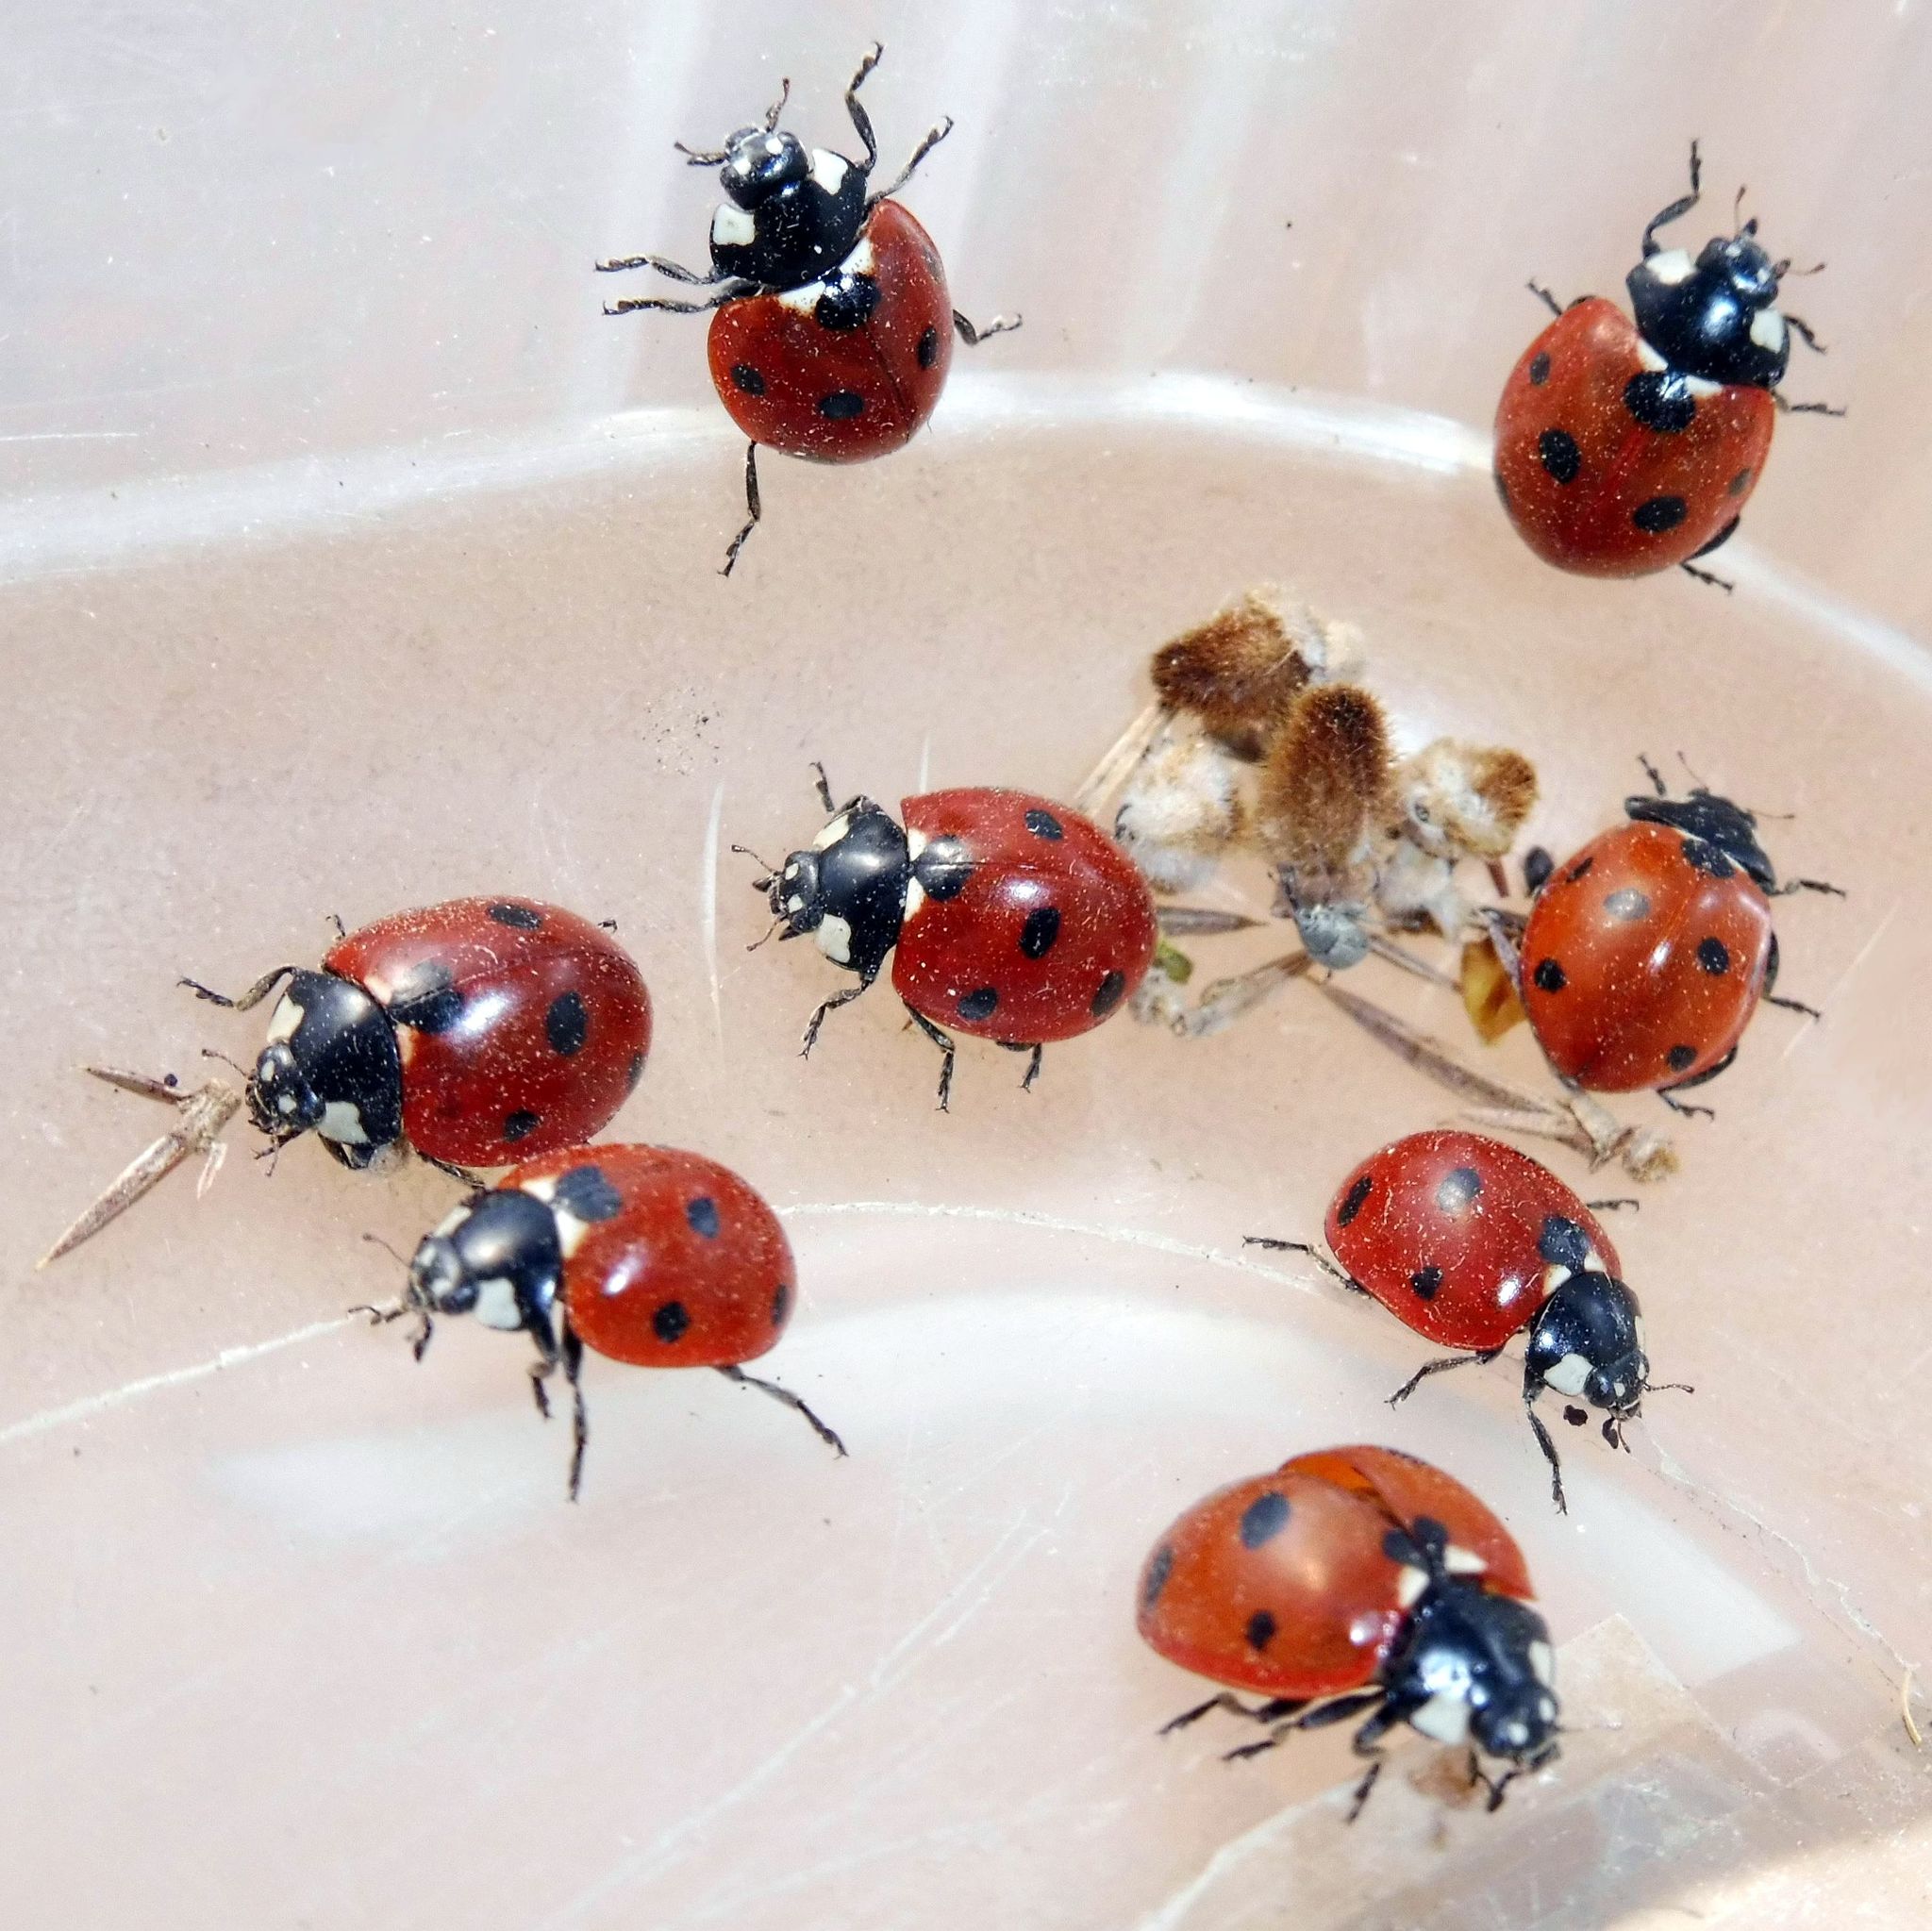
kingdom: Animalia
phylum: Arthropoda
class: Insecta
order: Coleoptera
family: Coccinellidae
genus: Coccinella
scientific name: Coccinella septempunctata
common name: Sevenspotted lady beetle
